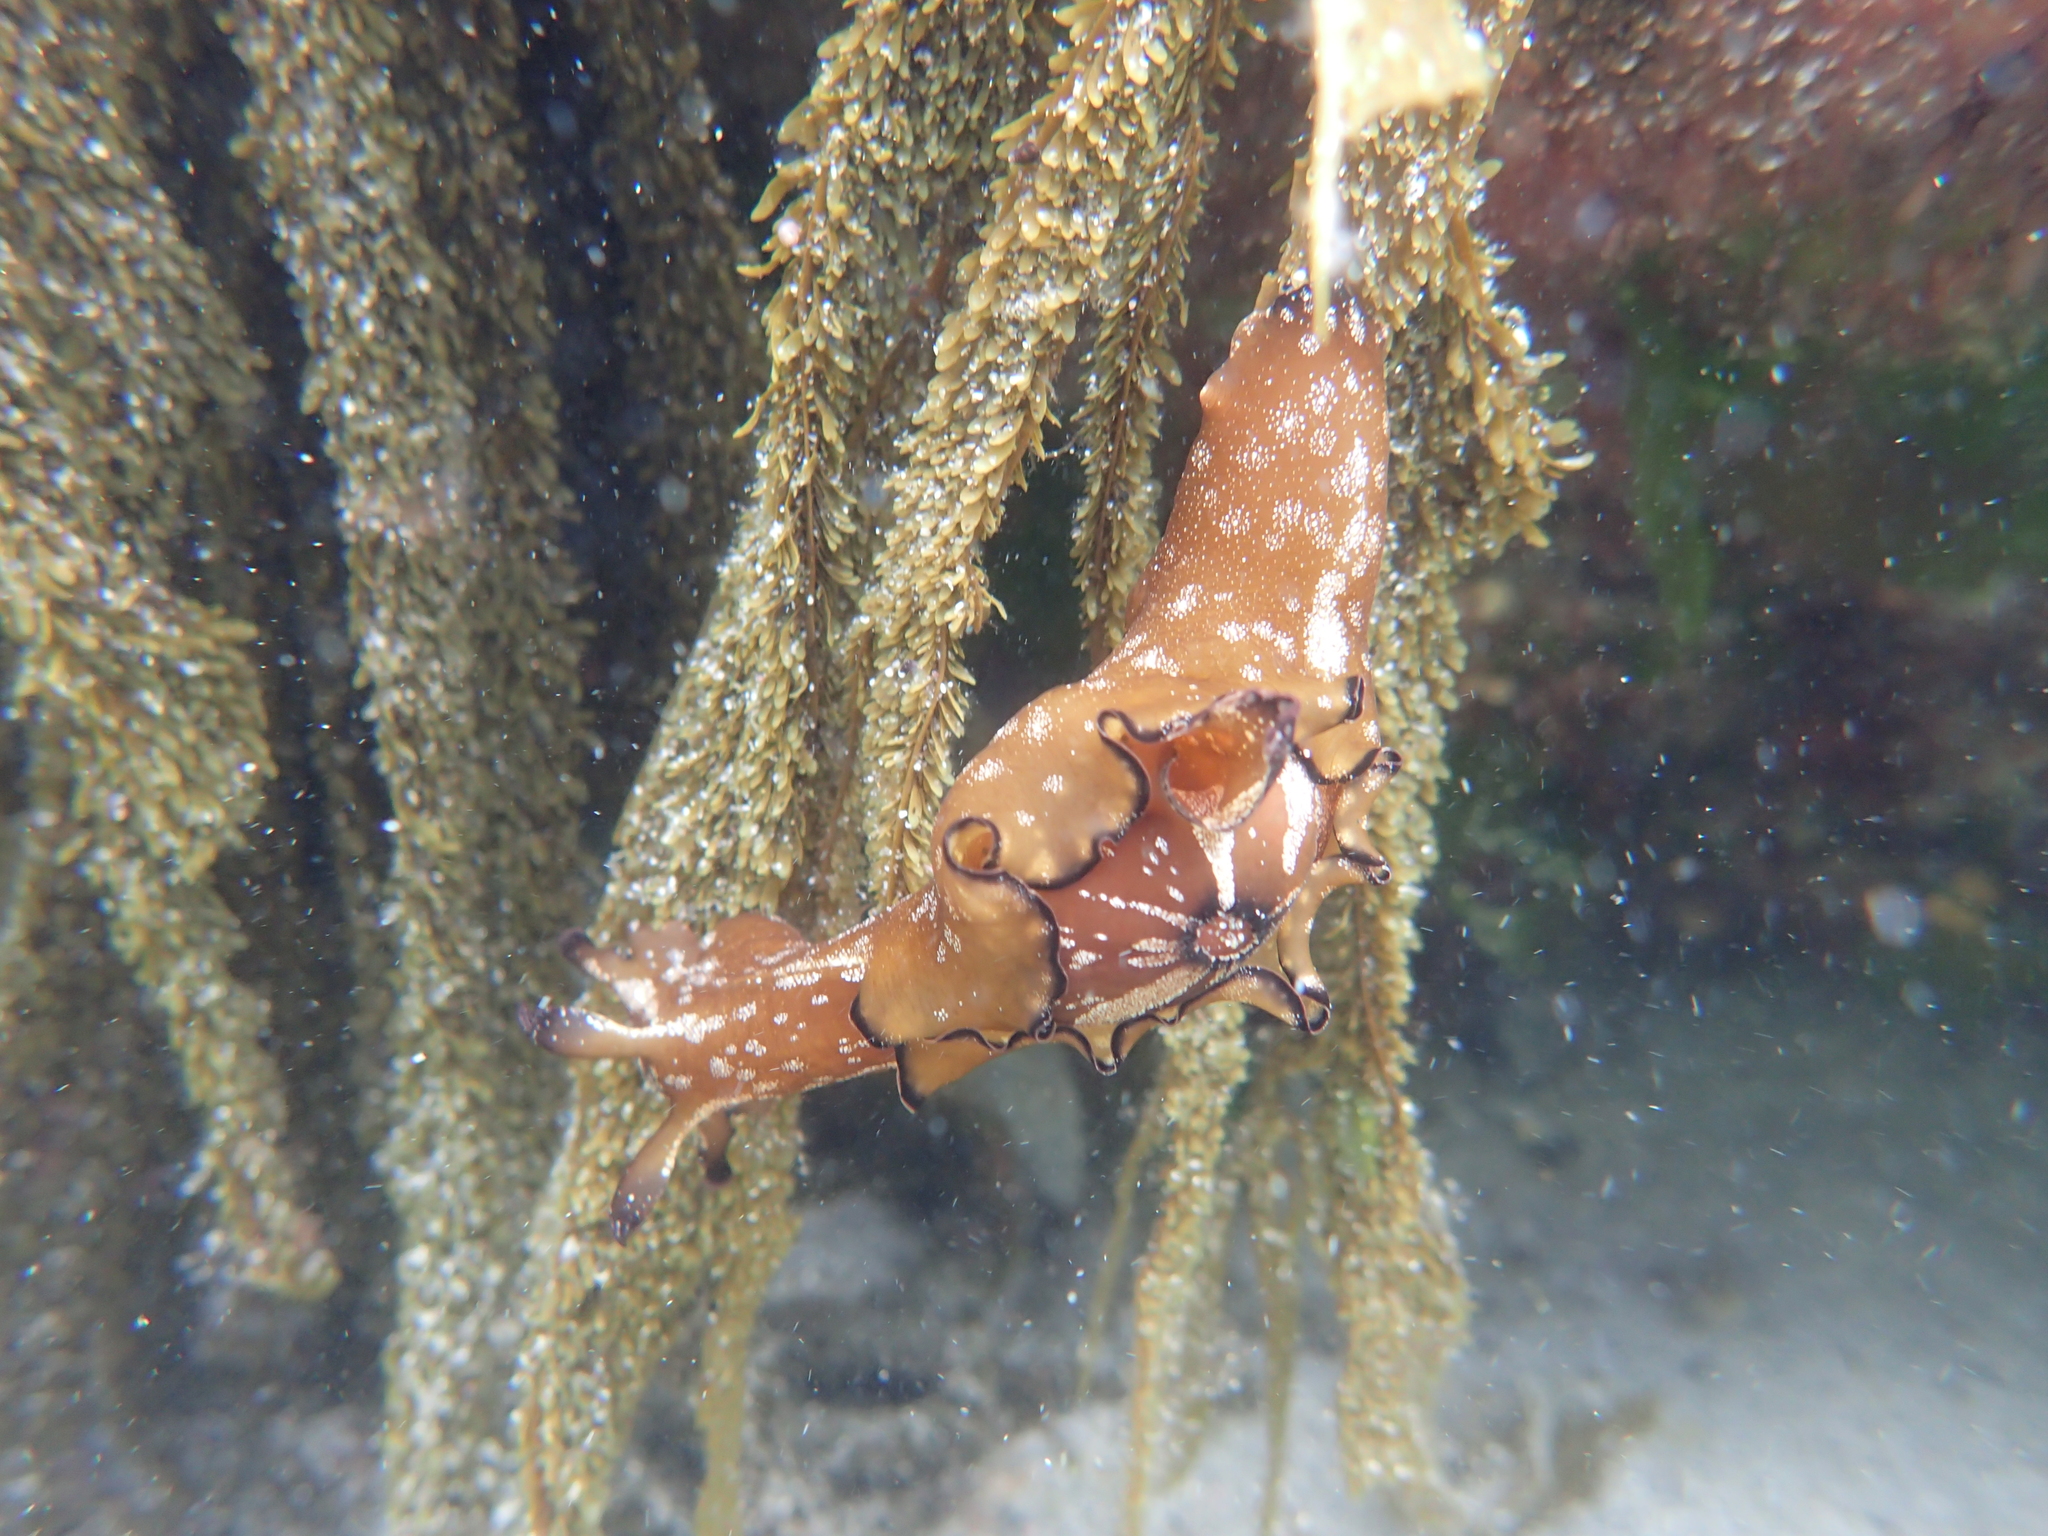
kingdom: Animalia
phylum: Mollusca
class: Gastropoda
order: Aplysiida
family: Aplysiidae
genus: Aplysia
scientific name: Aplysia concava
